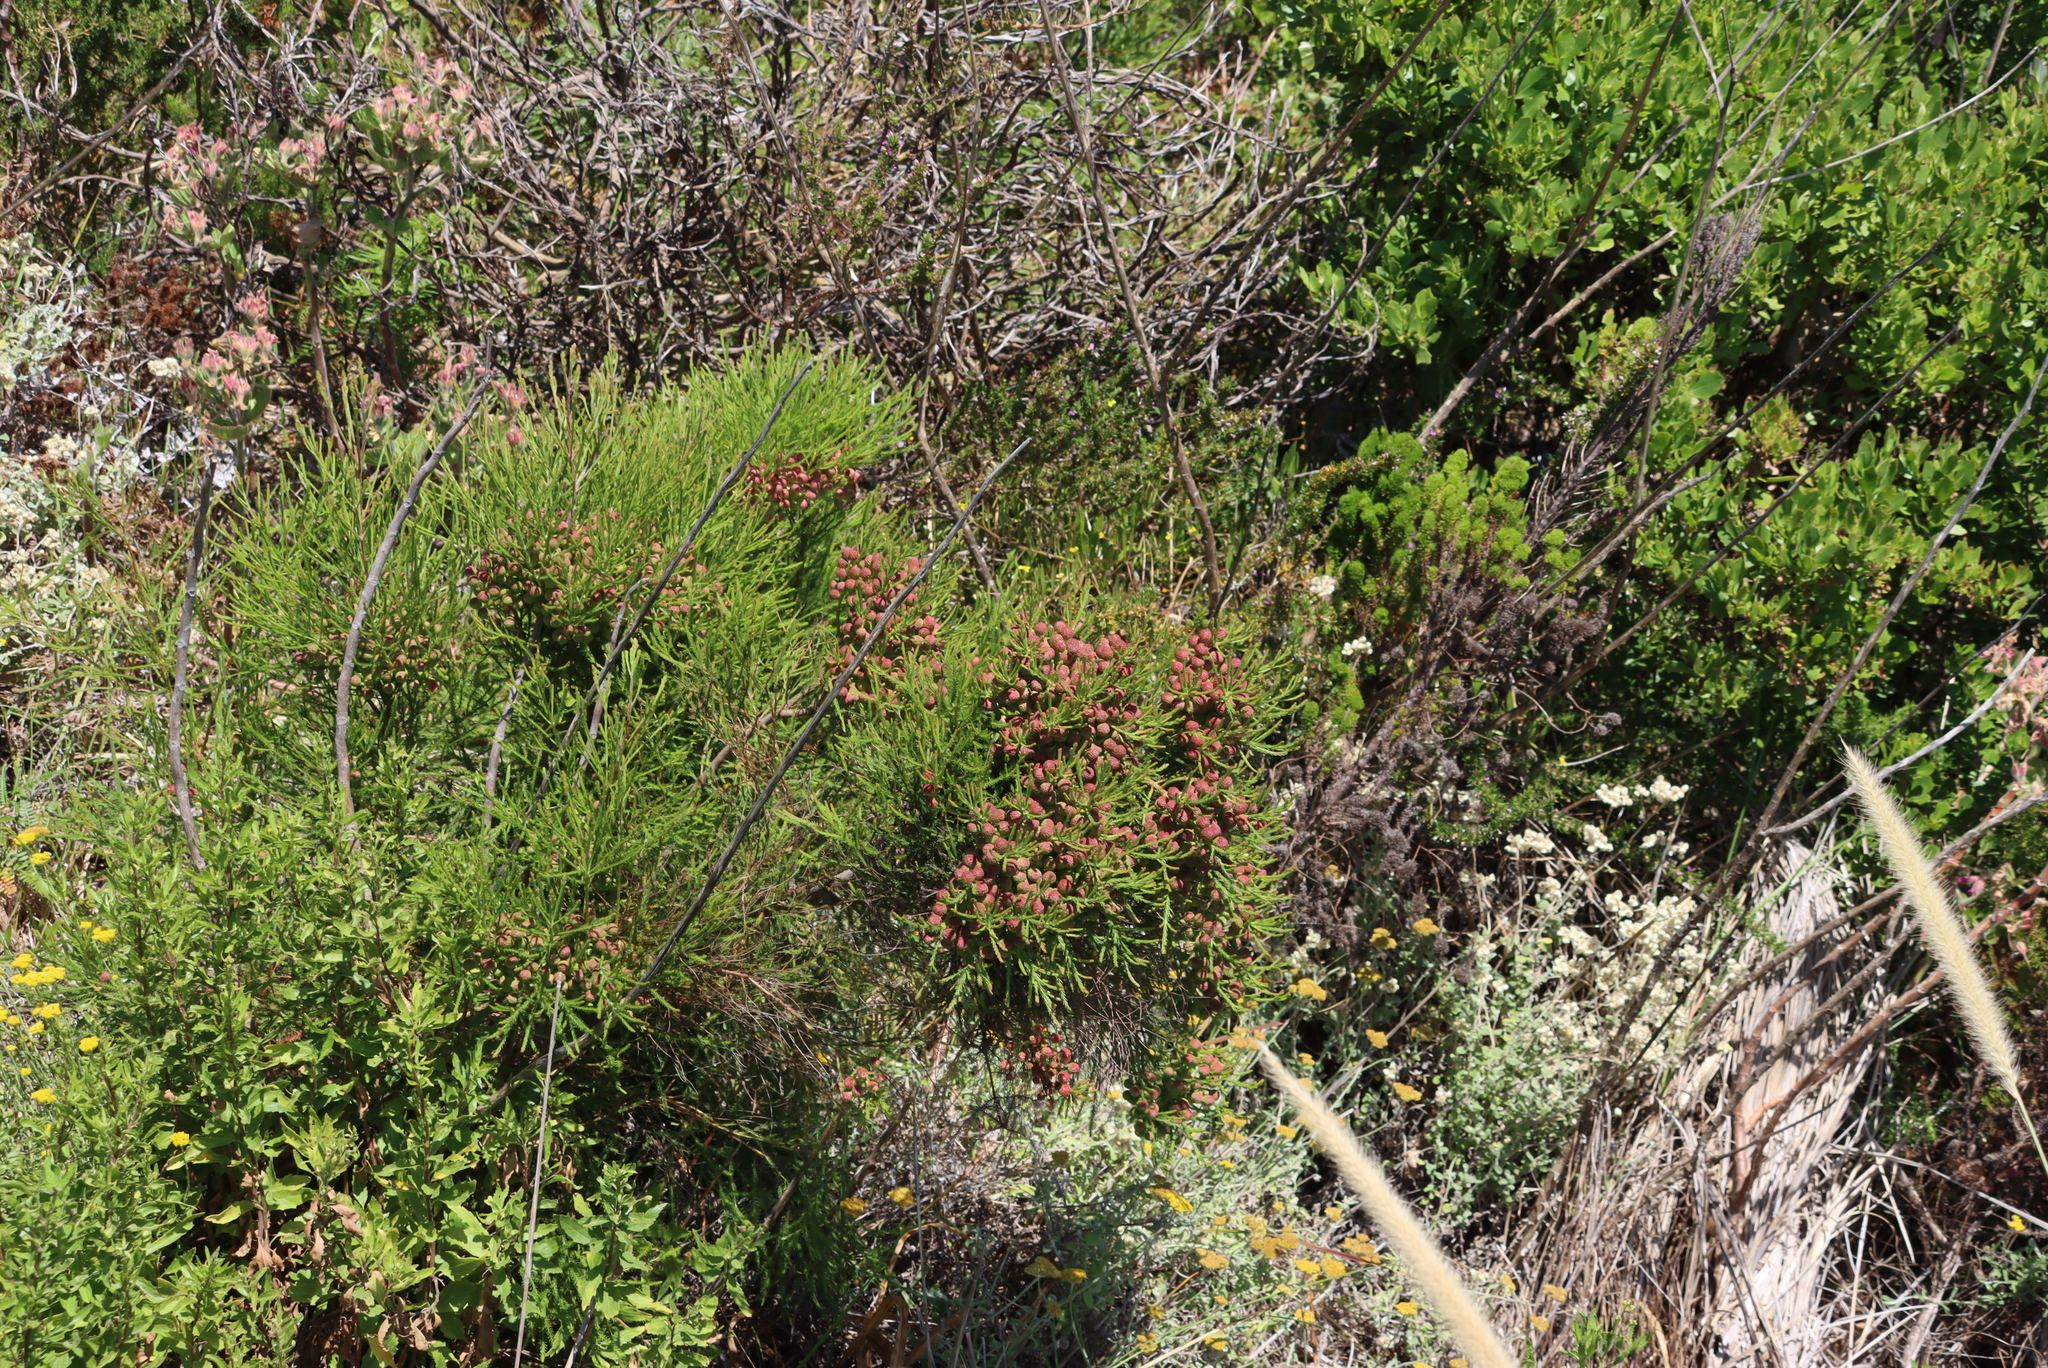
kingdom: Plantae
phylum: Tracheophyta
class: Magnoliopsida
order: Bruniales
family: Bruniaceae
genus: Berzelia
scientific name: Berzelia lanuginosa
